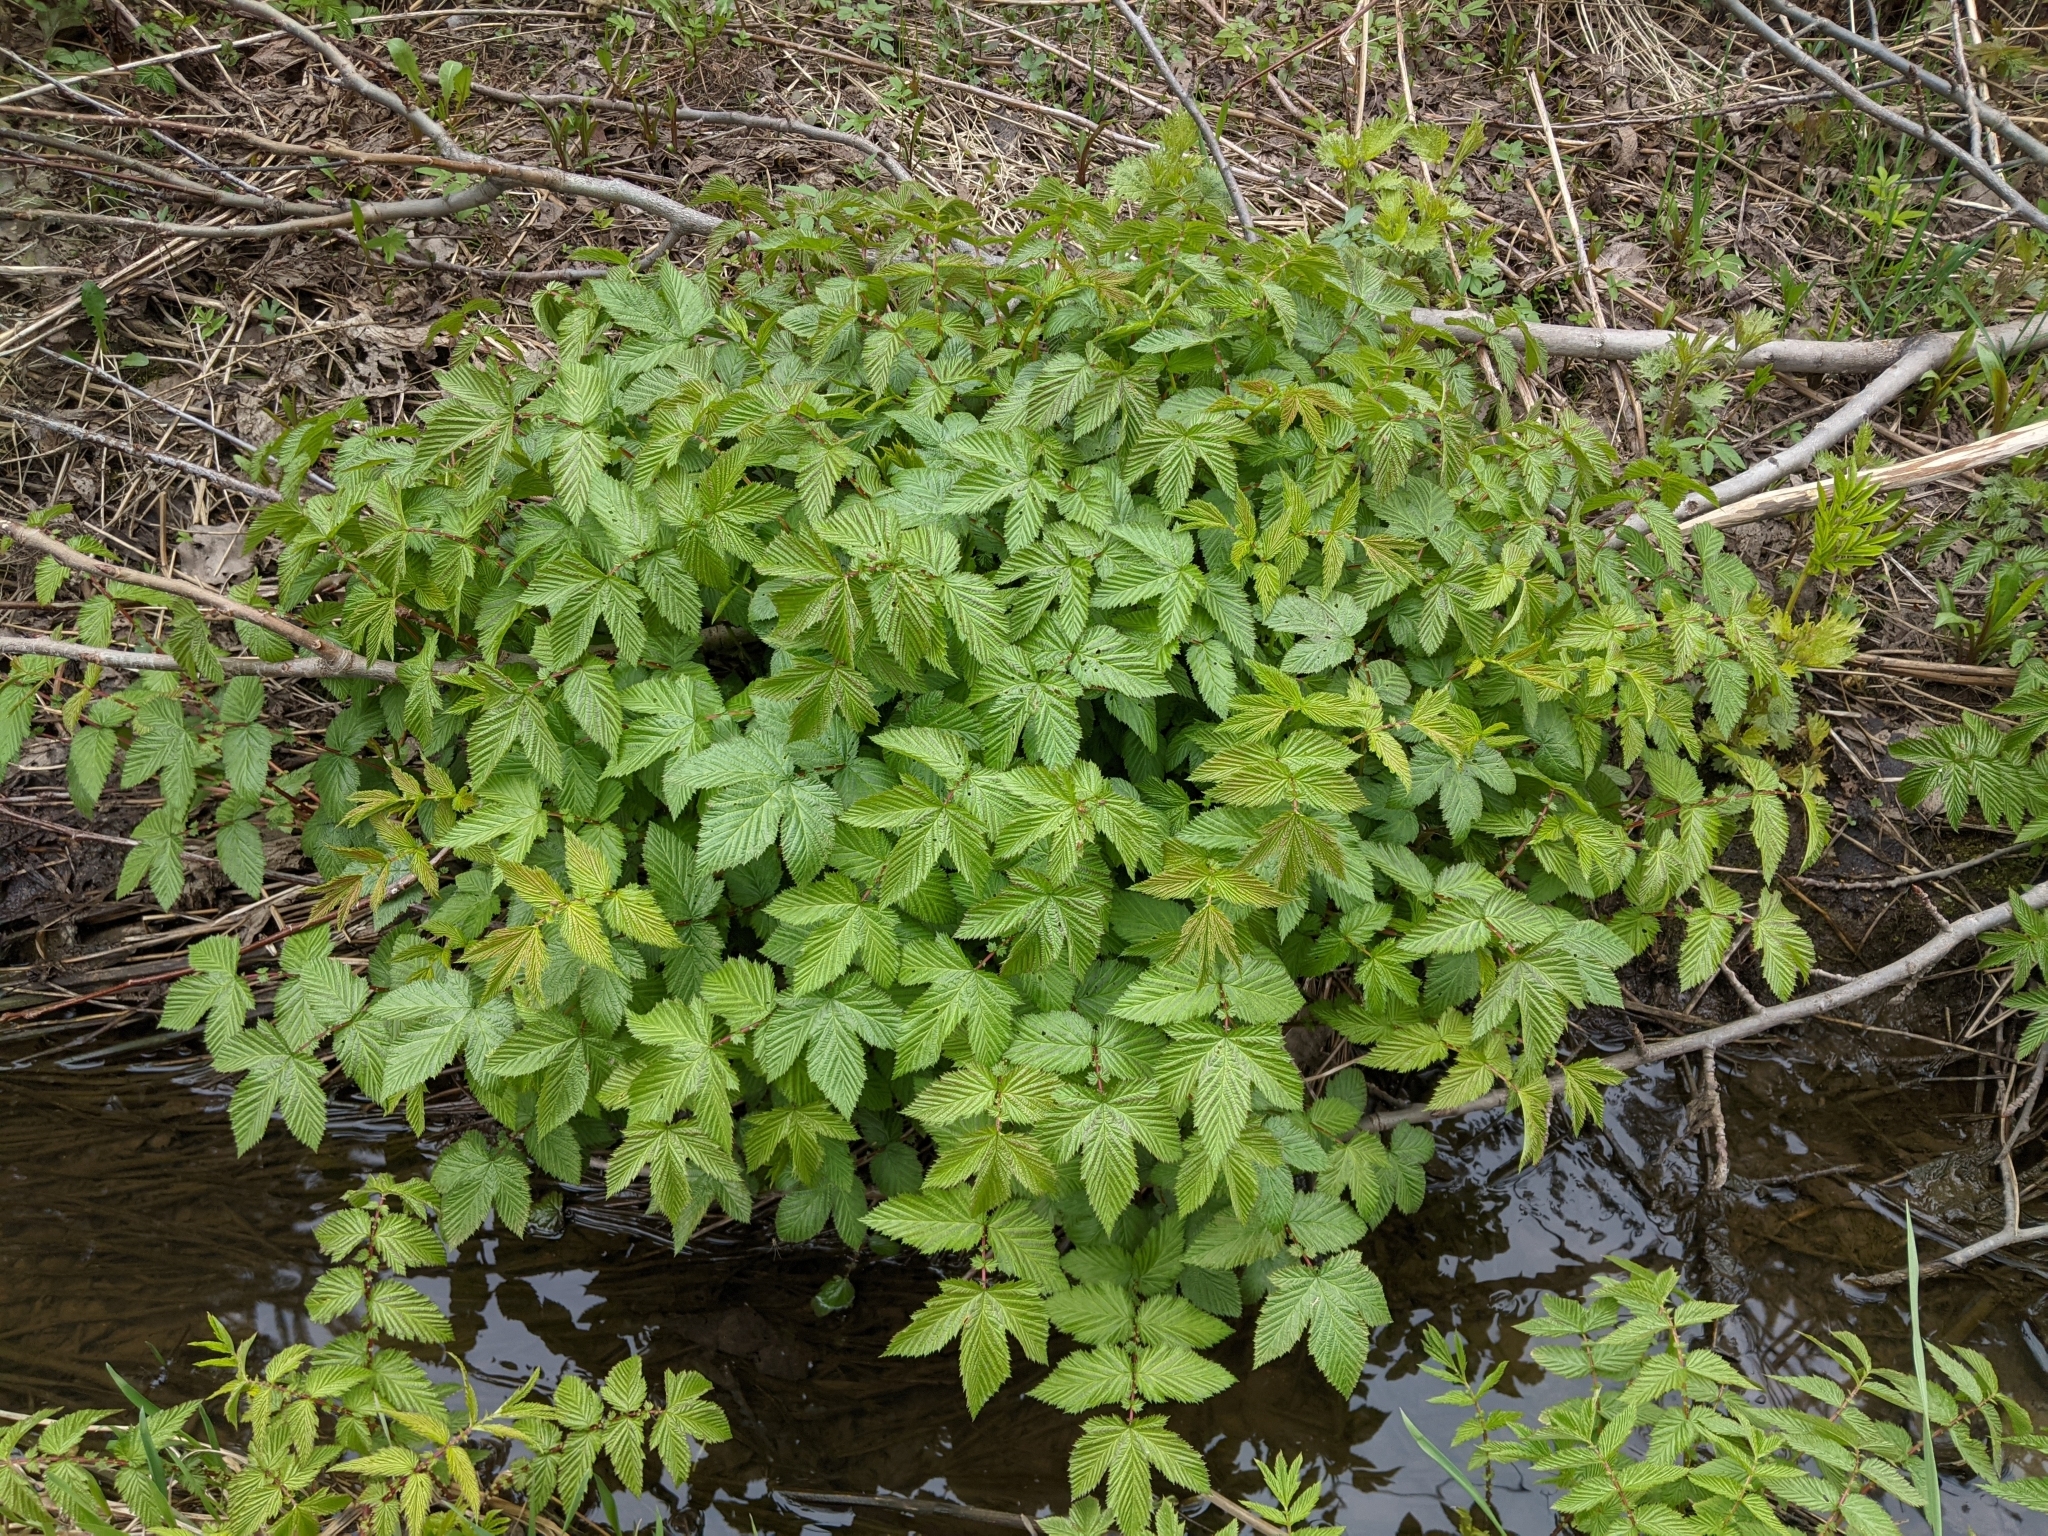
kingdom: Plantae
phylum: Tracheophyta
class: Magnoliopsida
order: Rosales
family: Rosaceae
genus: Filipendula
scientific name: Filipendula ulmaria
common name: Meadowsweet
